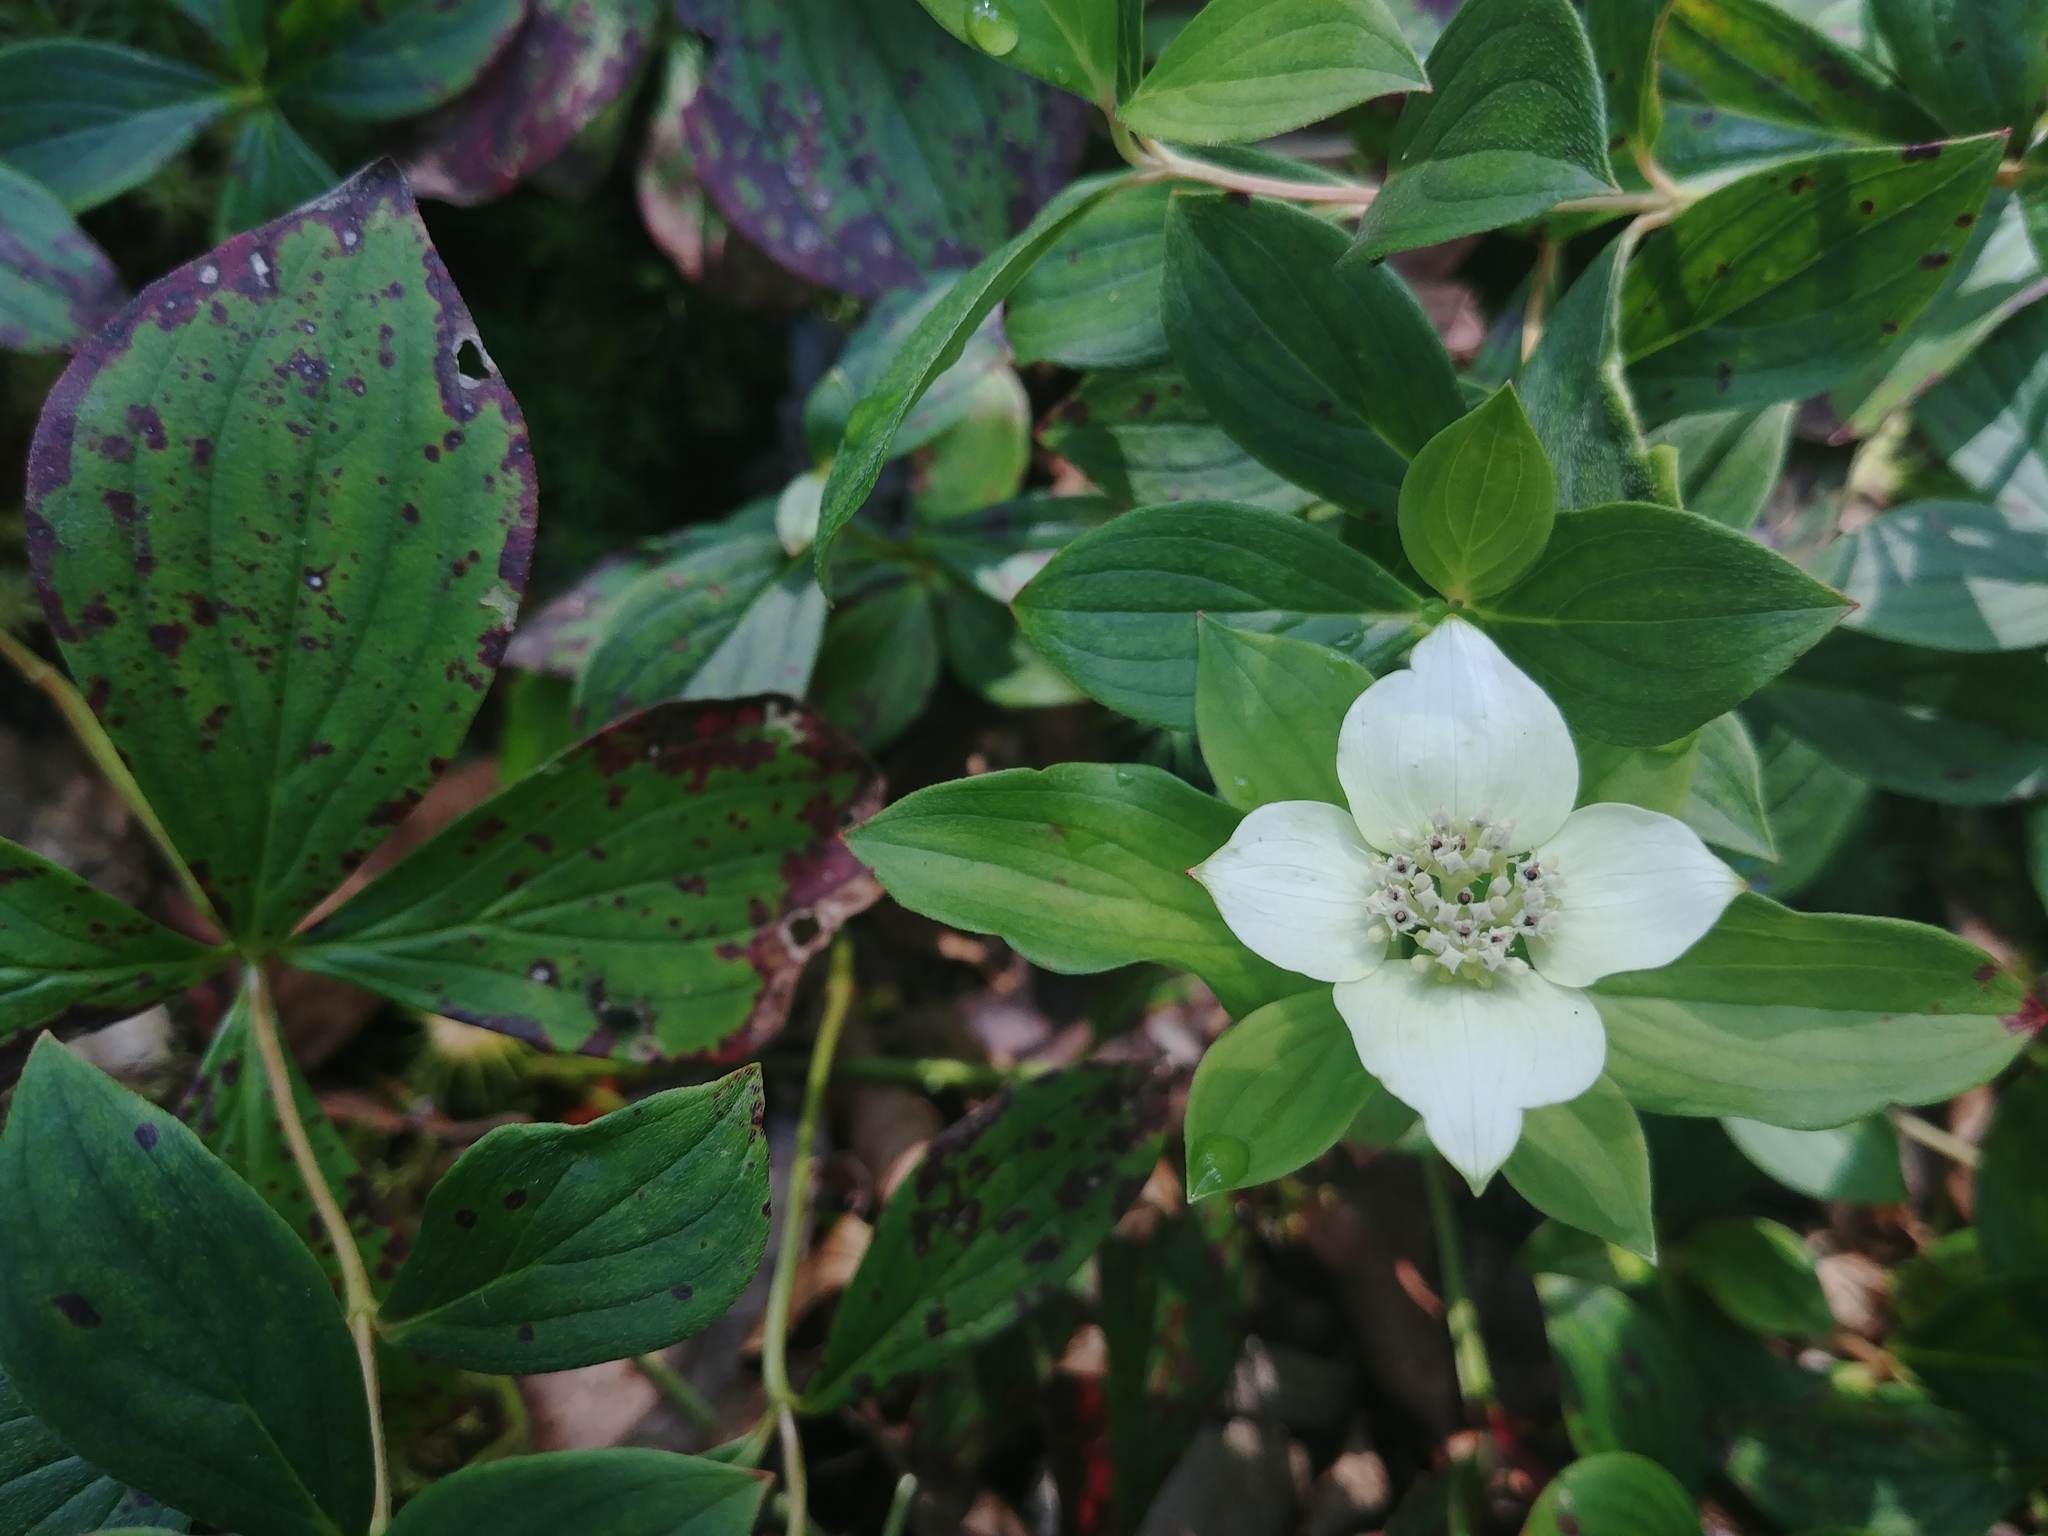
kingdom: Plantae
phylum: Tracheophyta
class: Magnoliopsida
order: Cornales
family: Cornaceae
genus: Cornus
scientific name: Cornus canadensis
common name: Creeping dogwood
